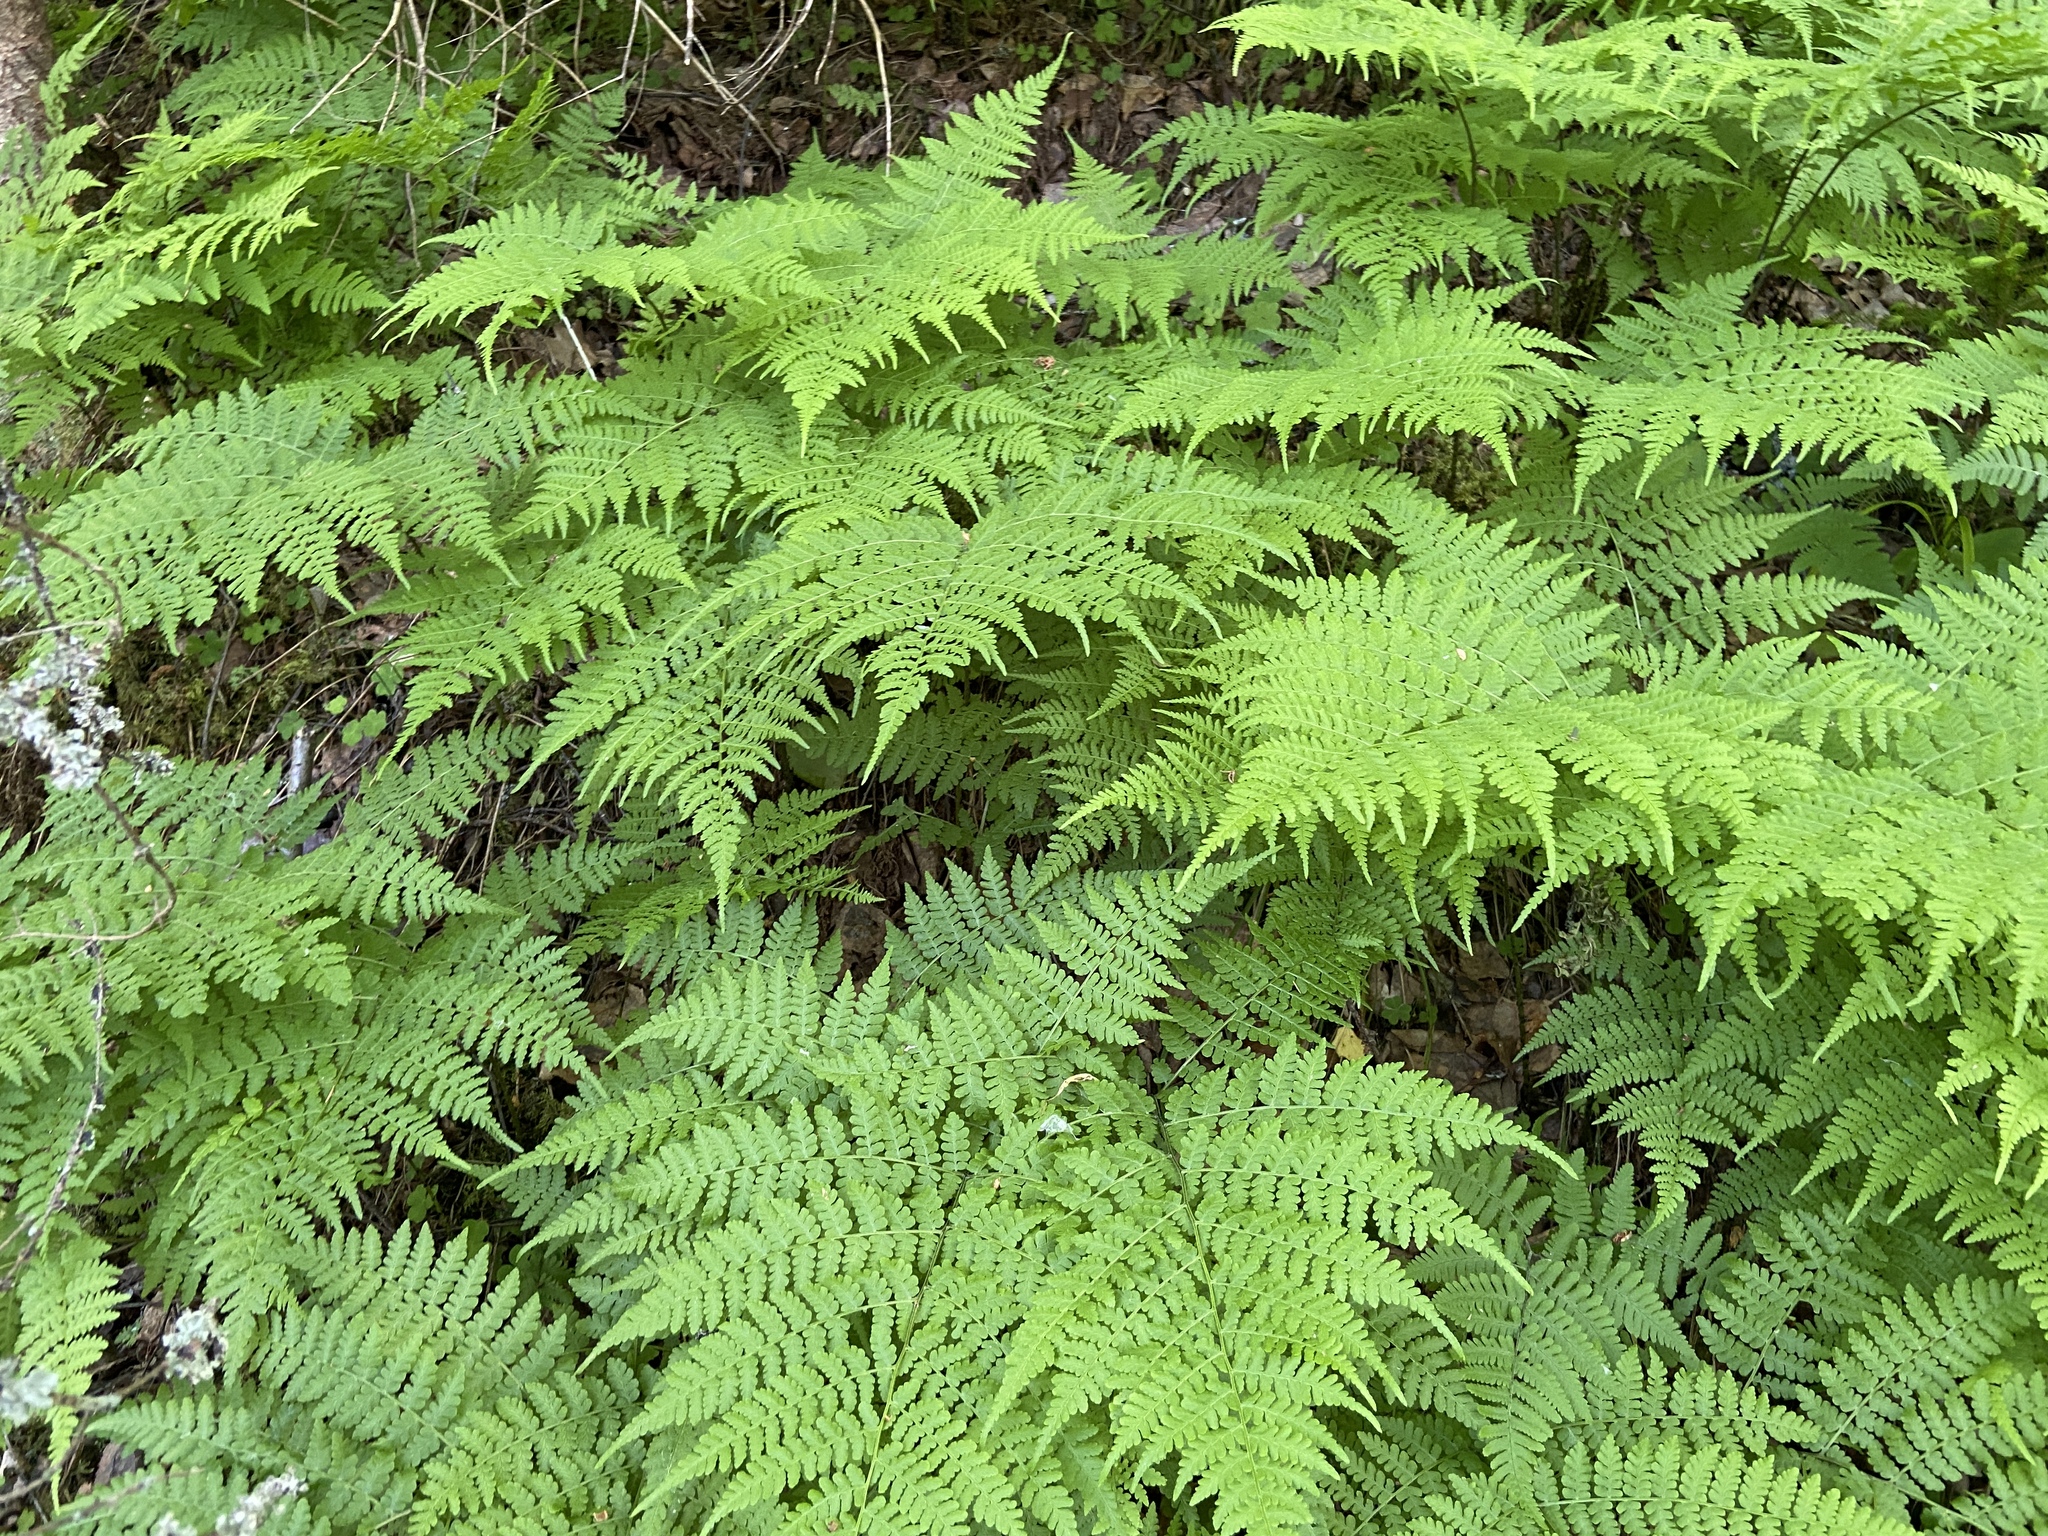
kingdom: Plantae
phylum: Tracheophyta
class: Polypodiopsida
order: Polypodiales
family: Athyriaceae
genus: Diplazium
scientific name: Diplazium sibiricum
